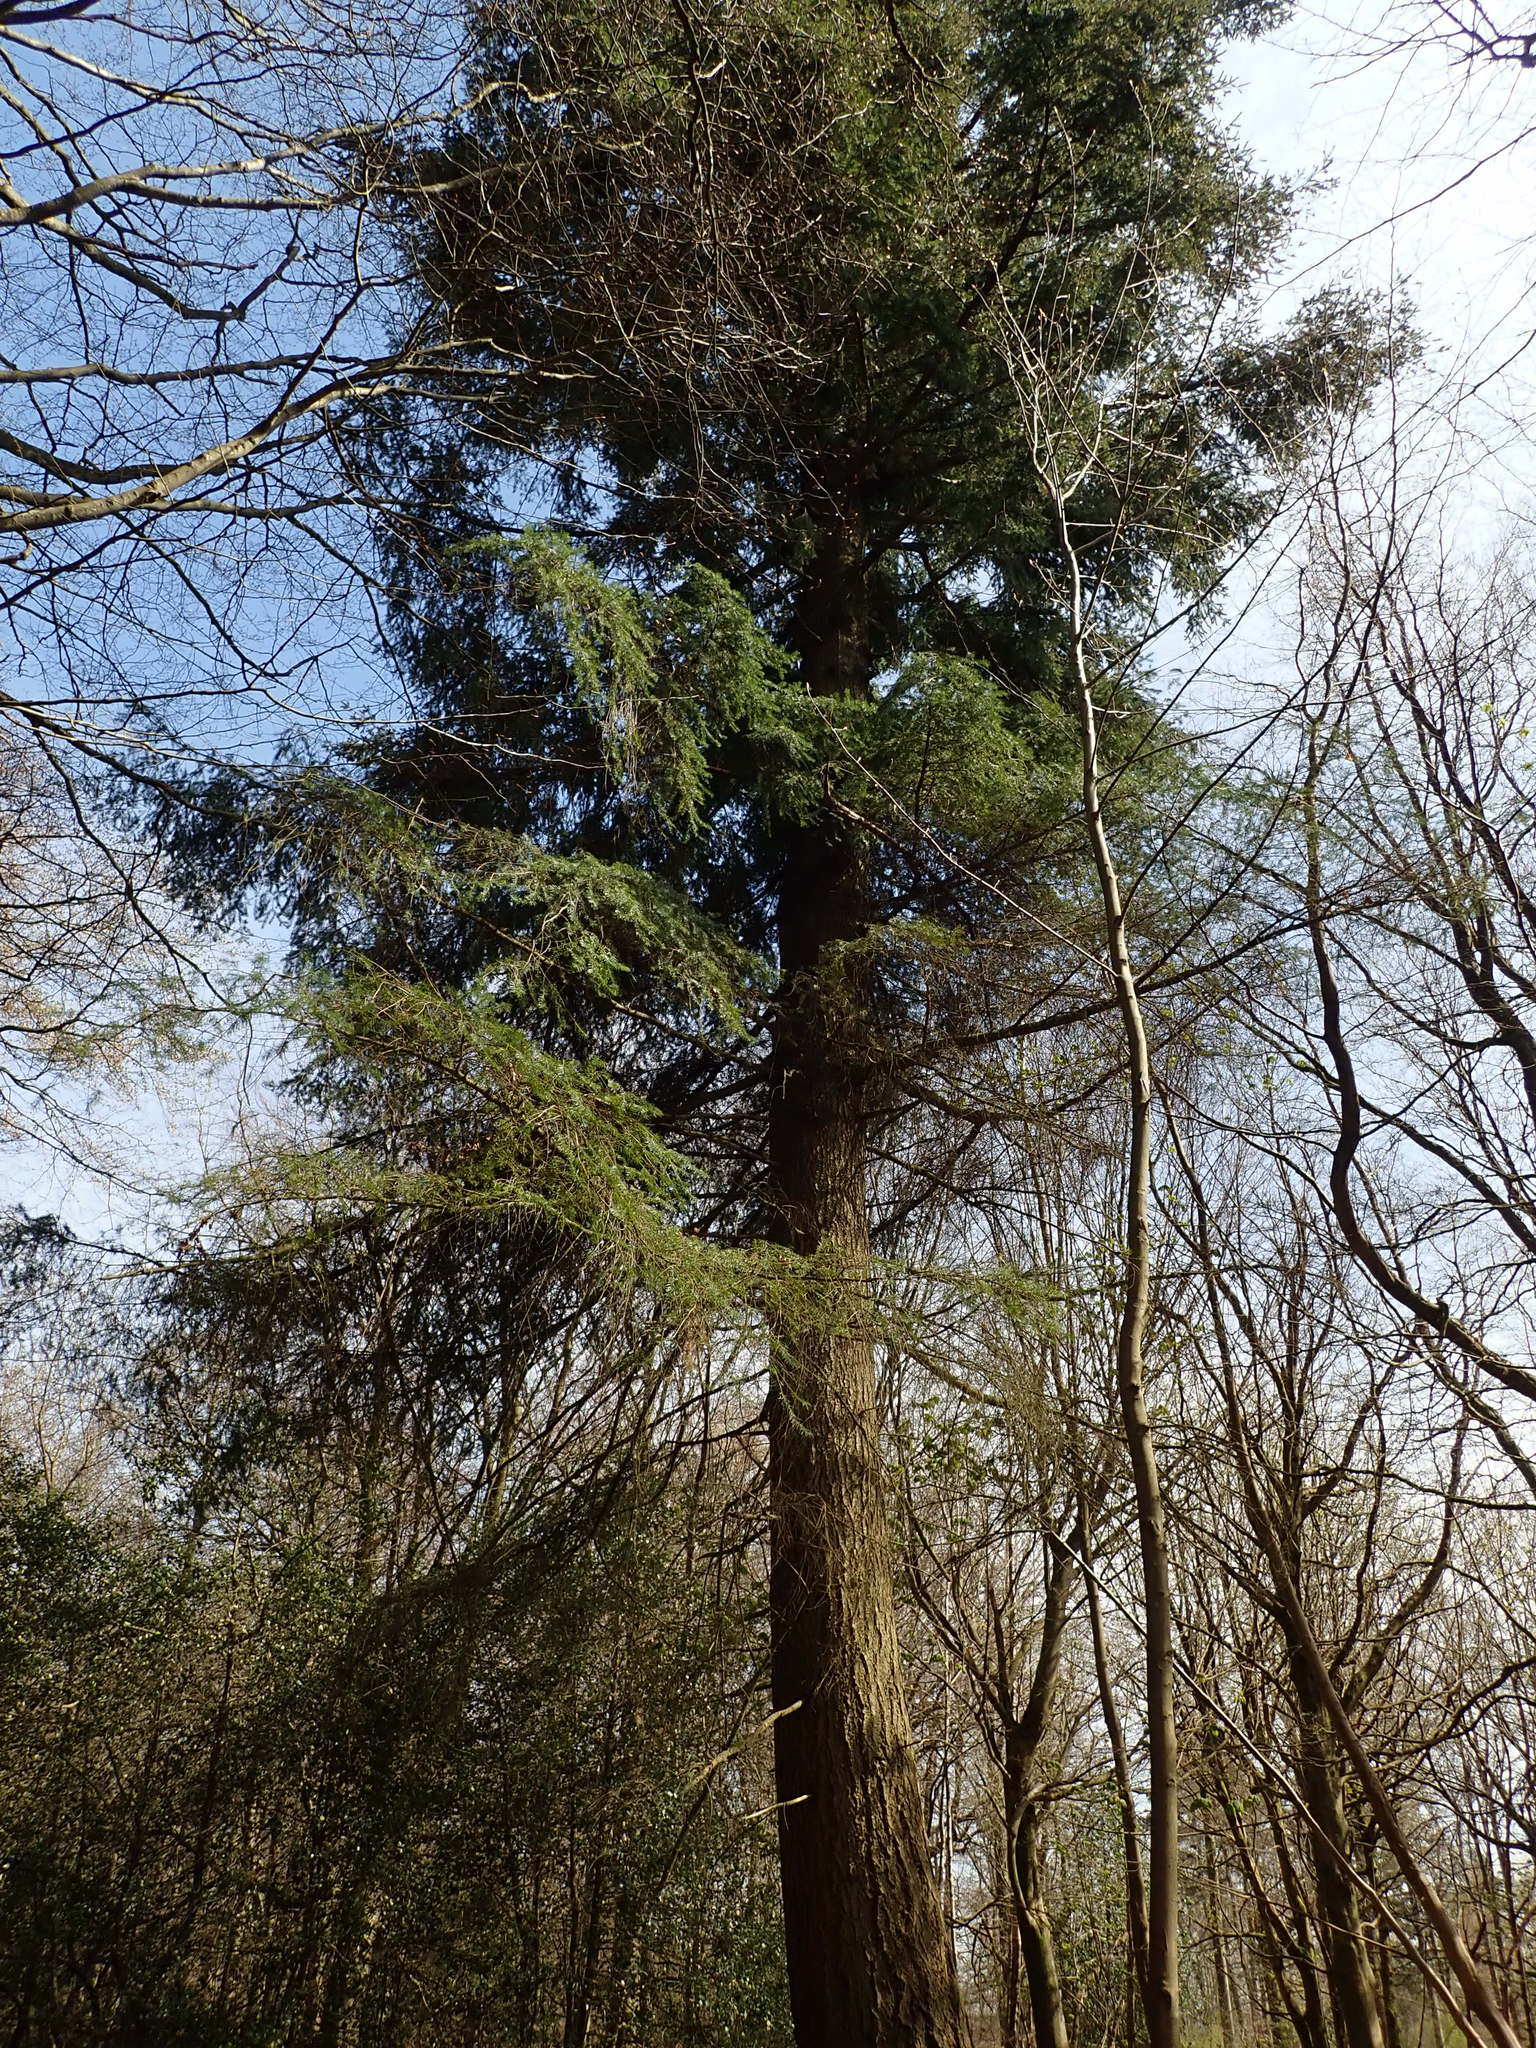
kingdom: Plantae
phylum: Tracheophyta
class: Pinopsida
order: Pinales
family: Pinaceae
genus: Pseudotsuga
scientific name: Pseudotsuga menziesii
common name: Douglas fir
